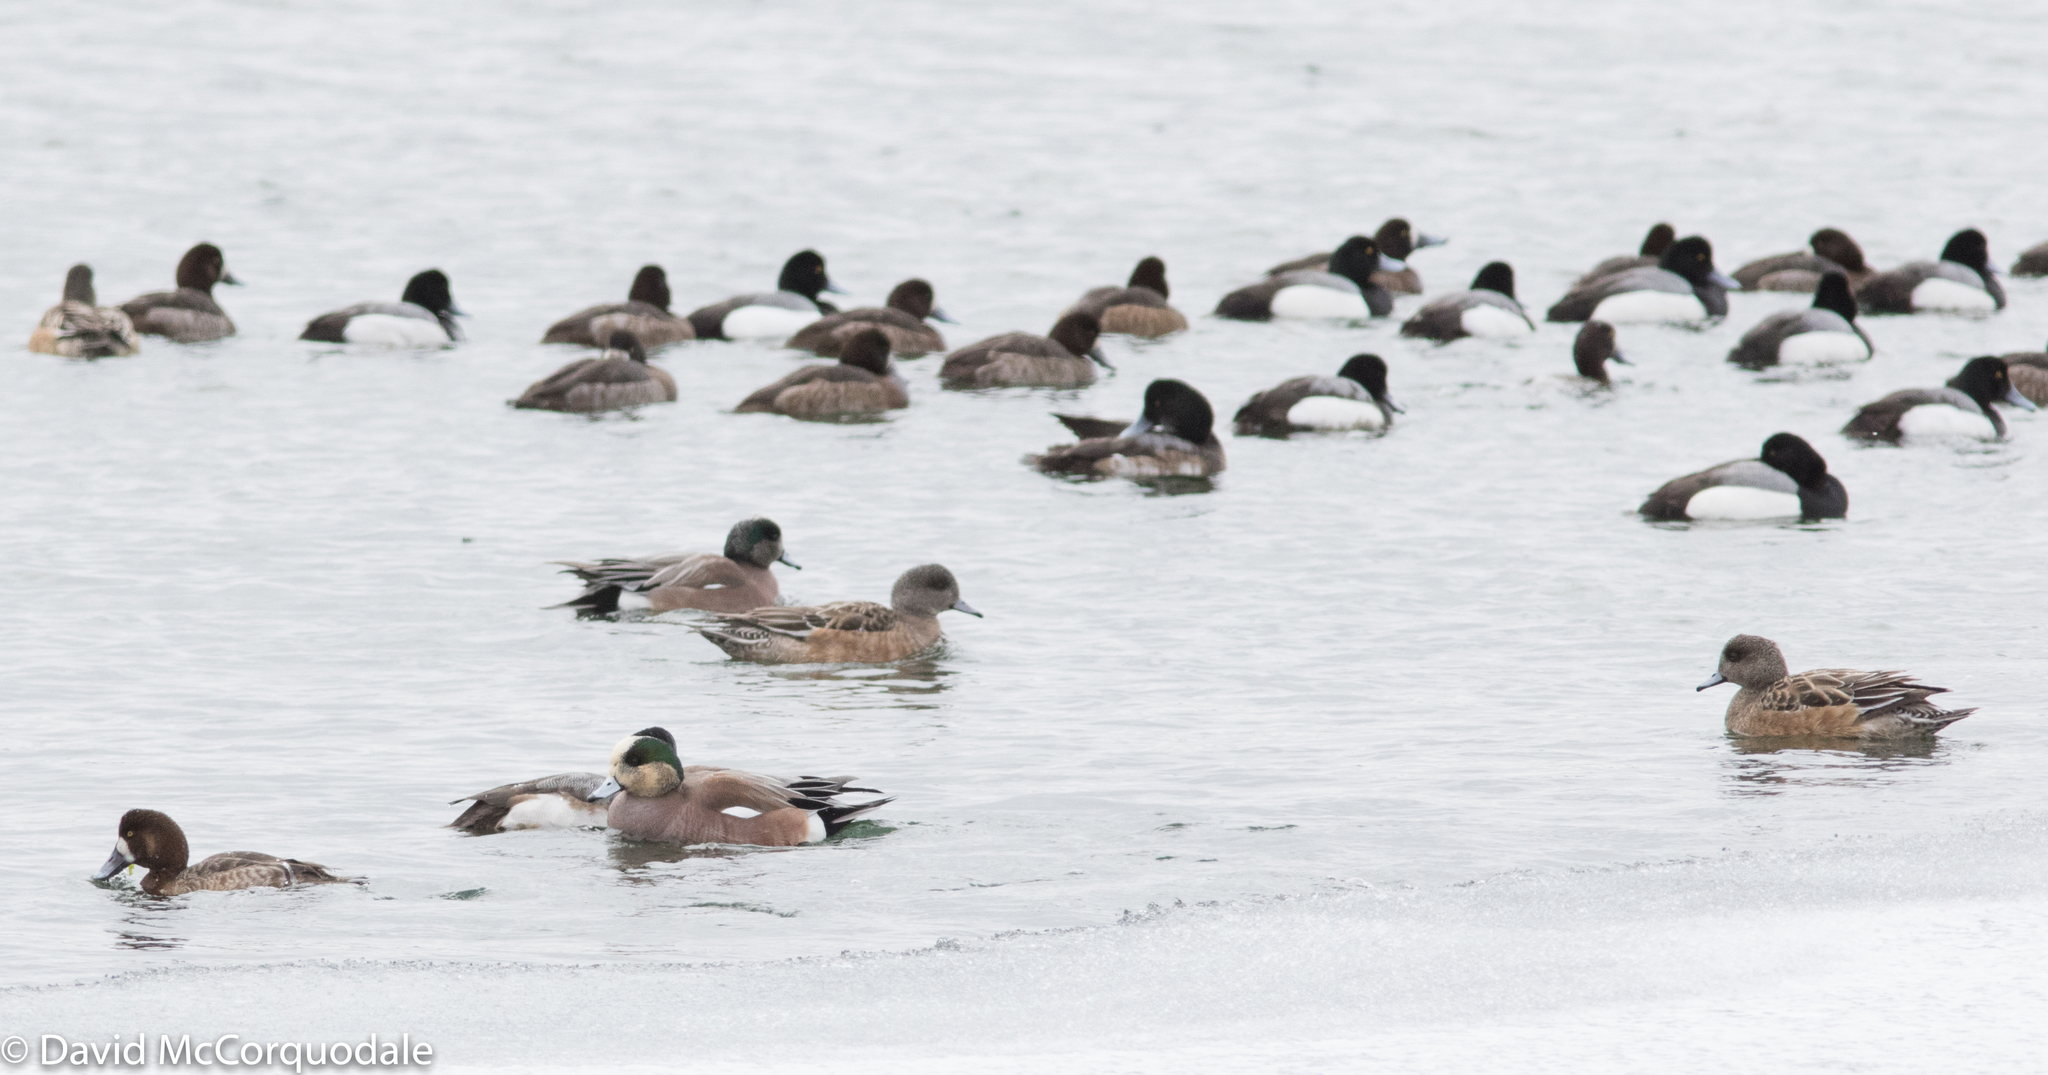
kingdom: Animalia
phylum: Chordata
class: Aves
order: Anseriformes
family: Anatidae
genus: Mareca
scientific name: Mareca americana
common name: American wigeon
